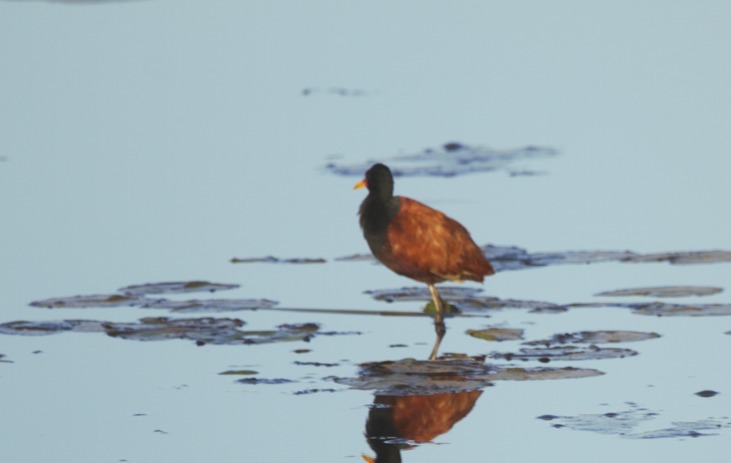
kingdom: Animalia
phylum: Chordata
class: Aves
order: Charadriiformes
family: Jacanidae
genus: Jacana
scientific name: Jacana jacana
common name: Wattled jacana
